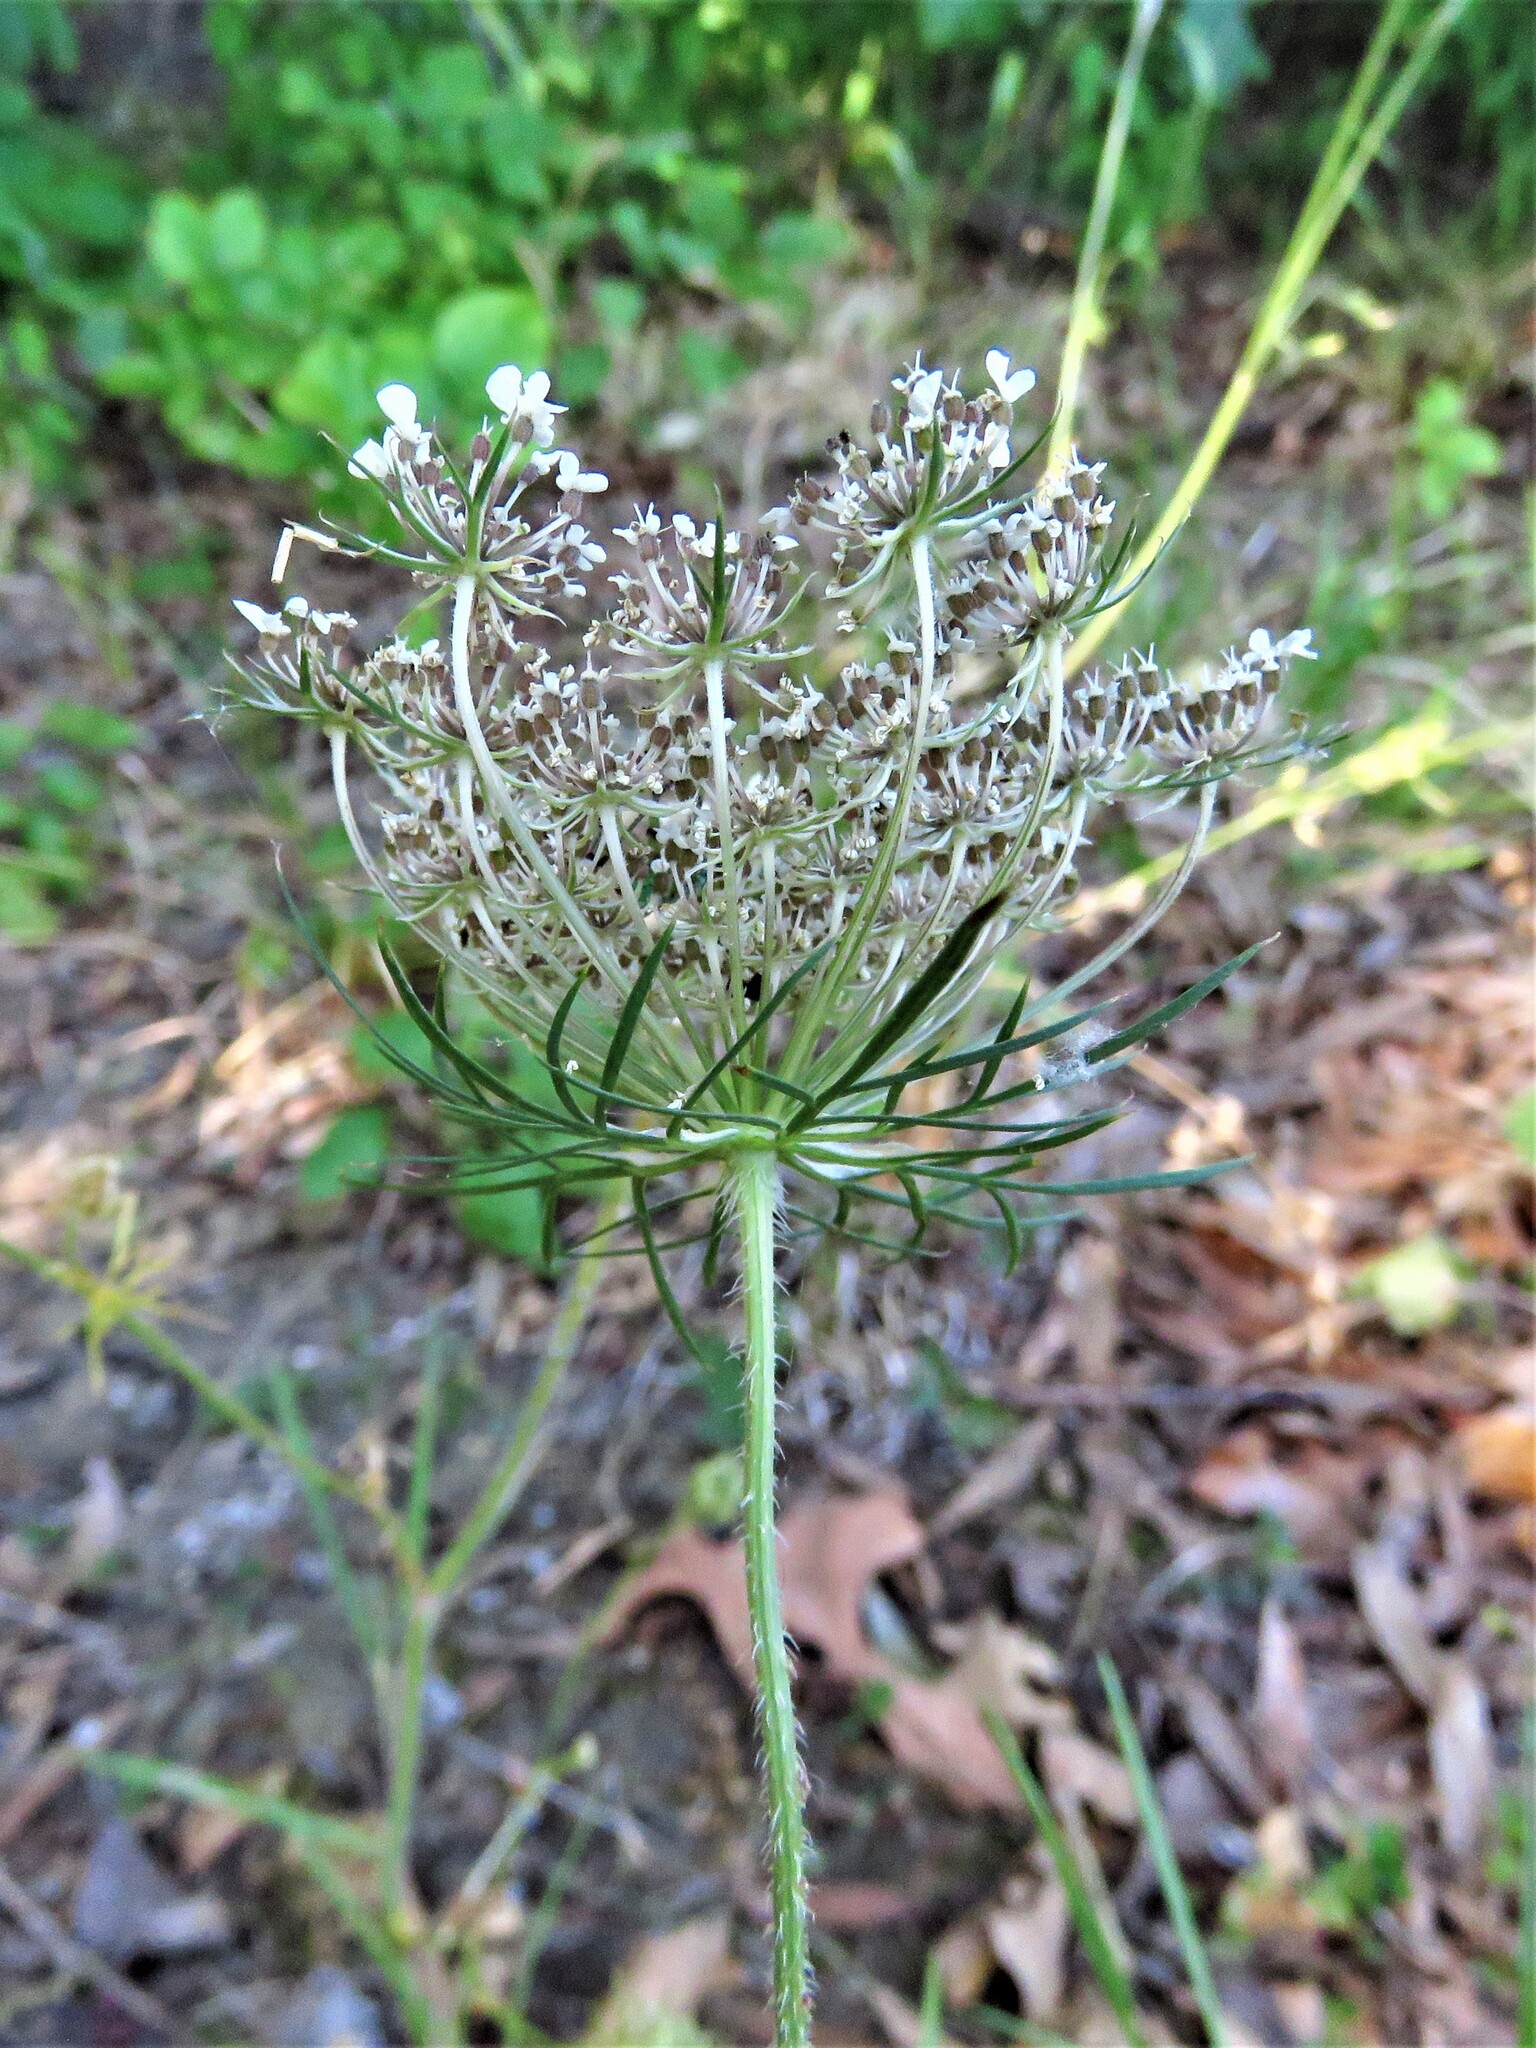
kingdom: Plantae
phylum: Tracheophyta
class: Magnoliopsida
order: Apiales
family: Apiaceae
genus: Daucus
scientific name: Daucus carota
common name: Wild carrot
